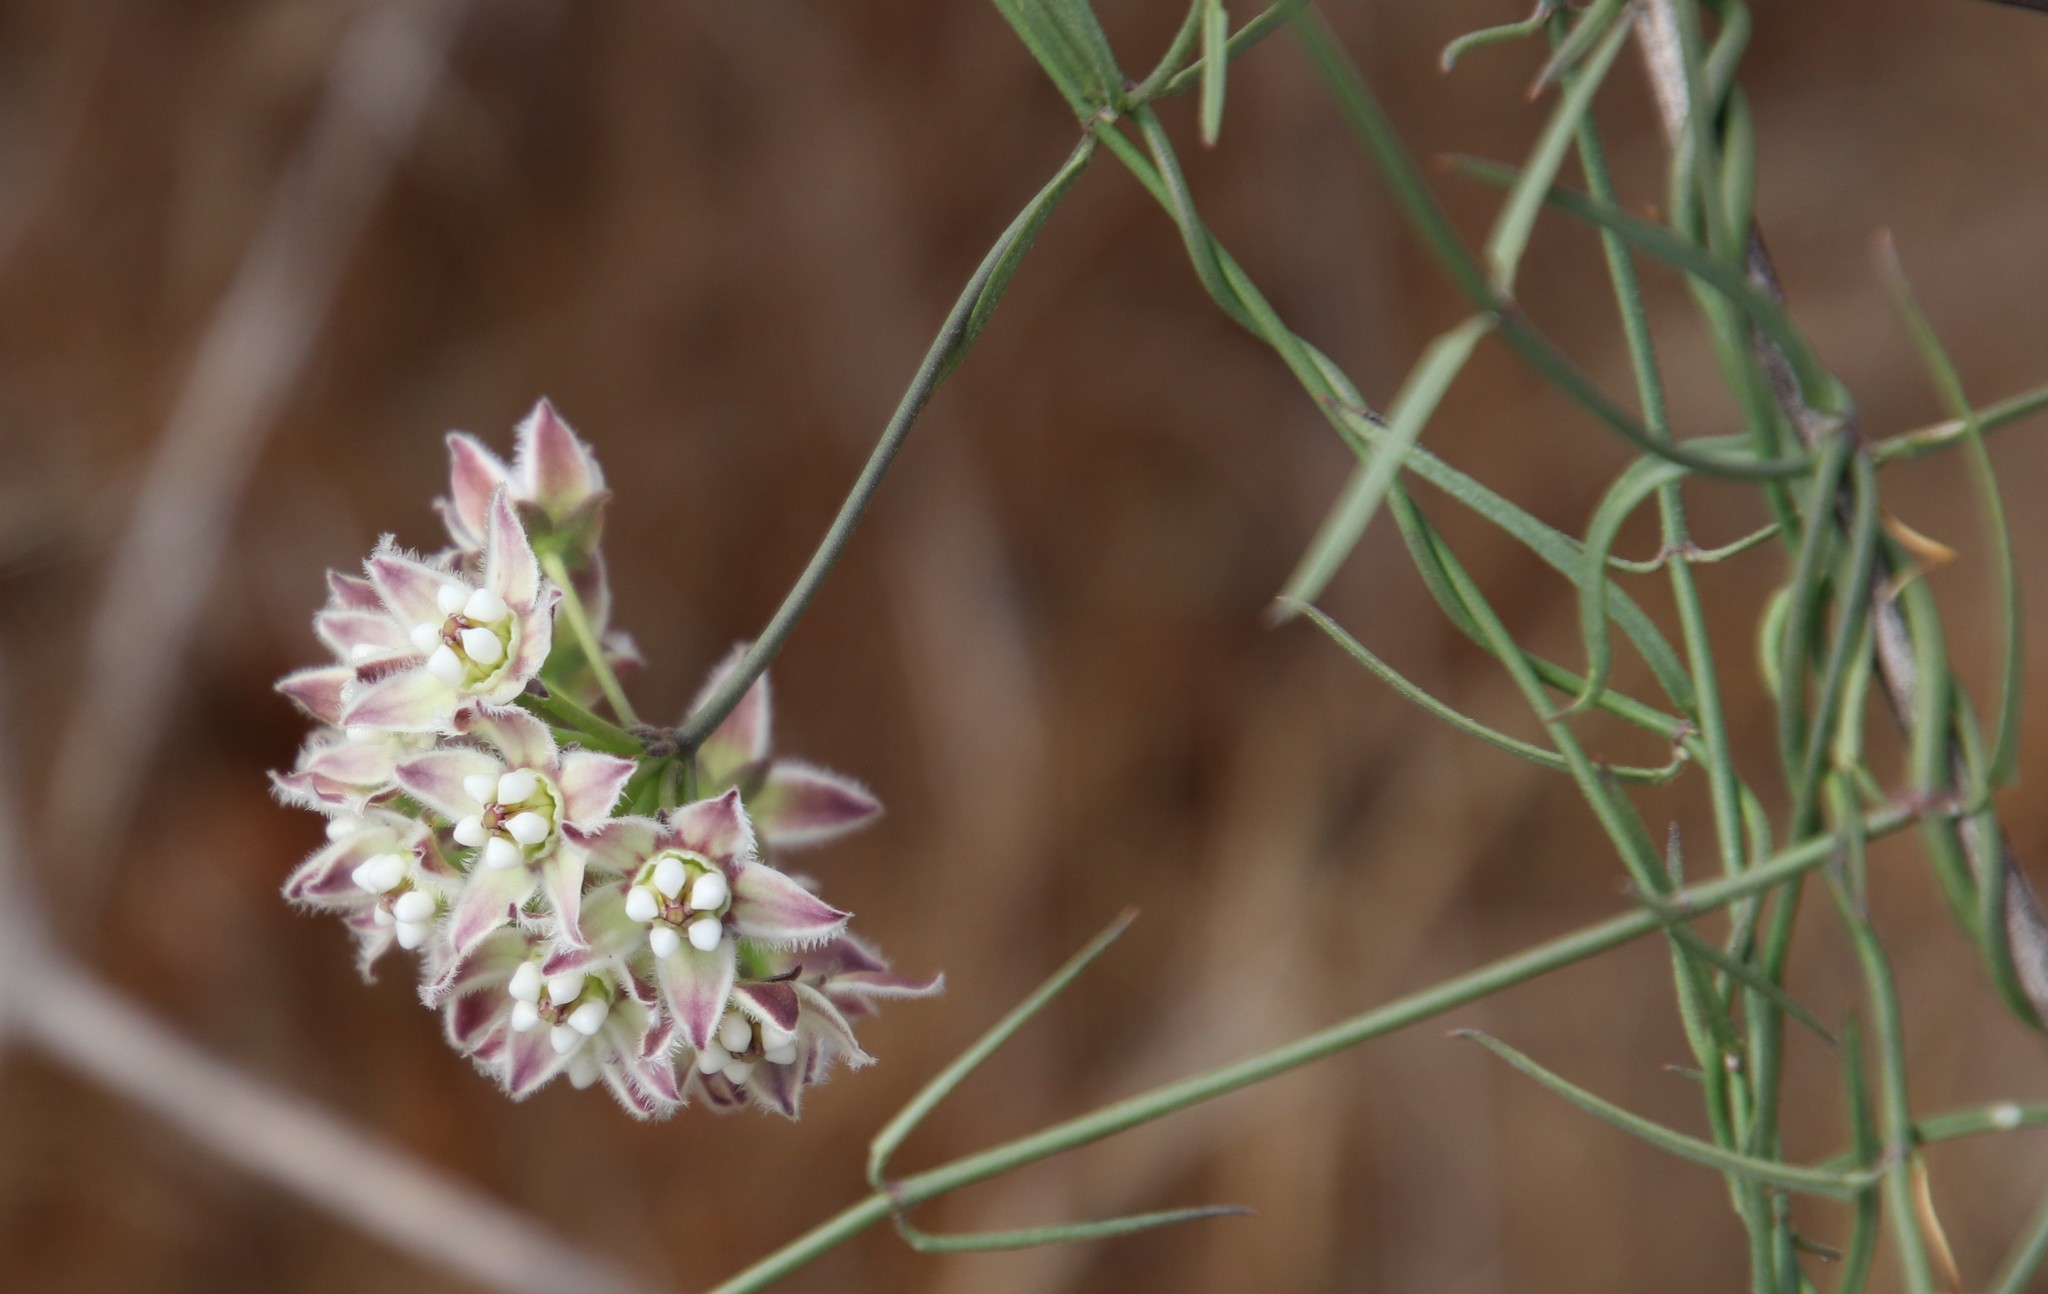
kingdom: Plantae
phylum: Tracheophyta
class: Magnoliopsida
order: Gentianales
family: Apocynaceae
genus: Funastrum
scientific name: Funastrum heterophyllum
